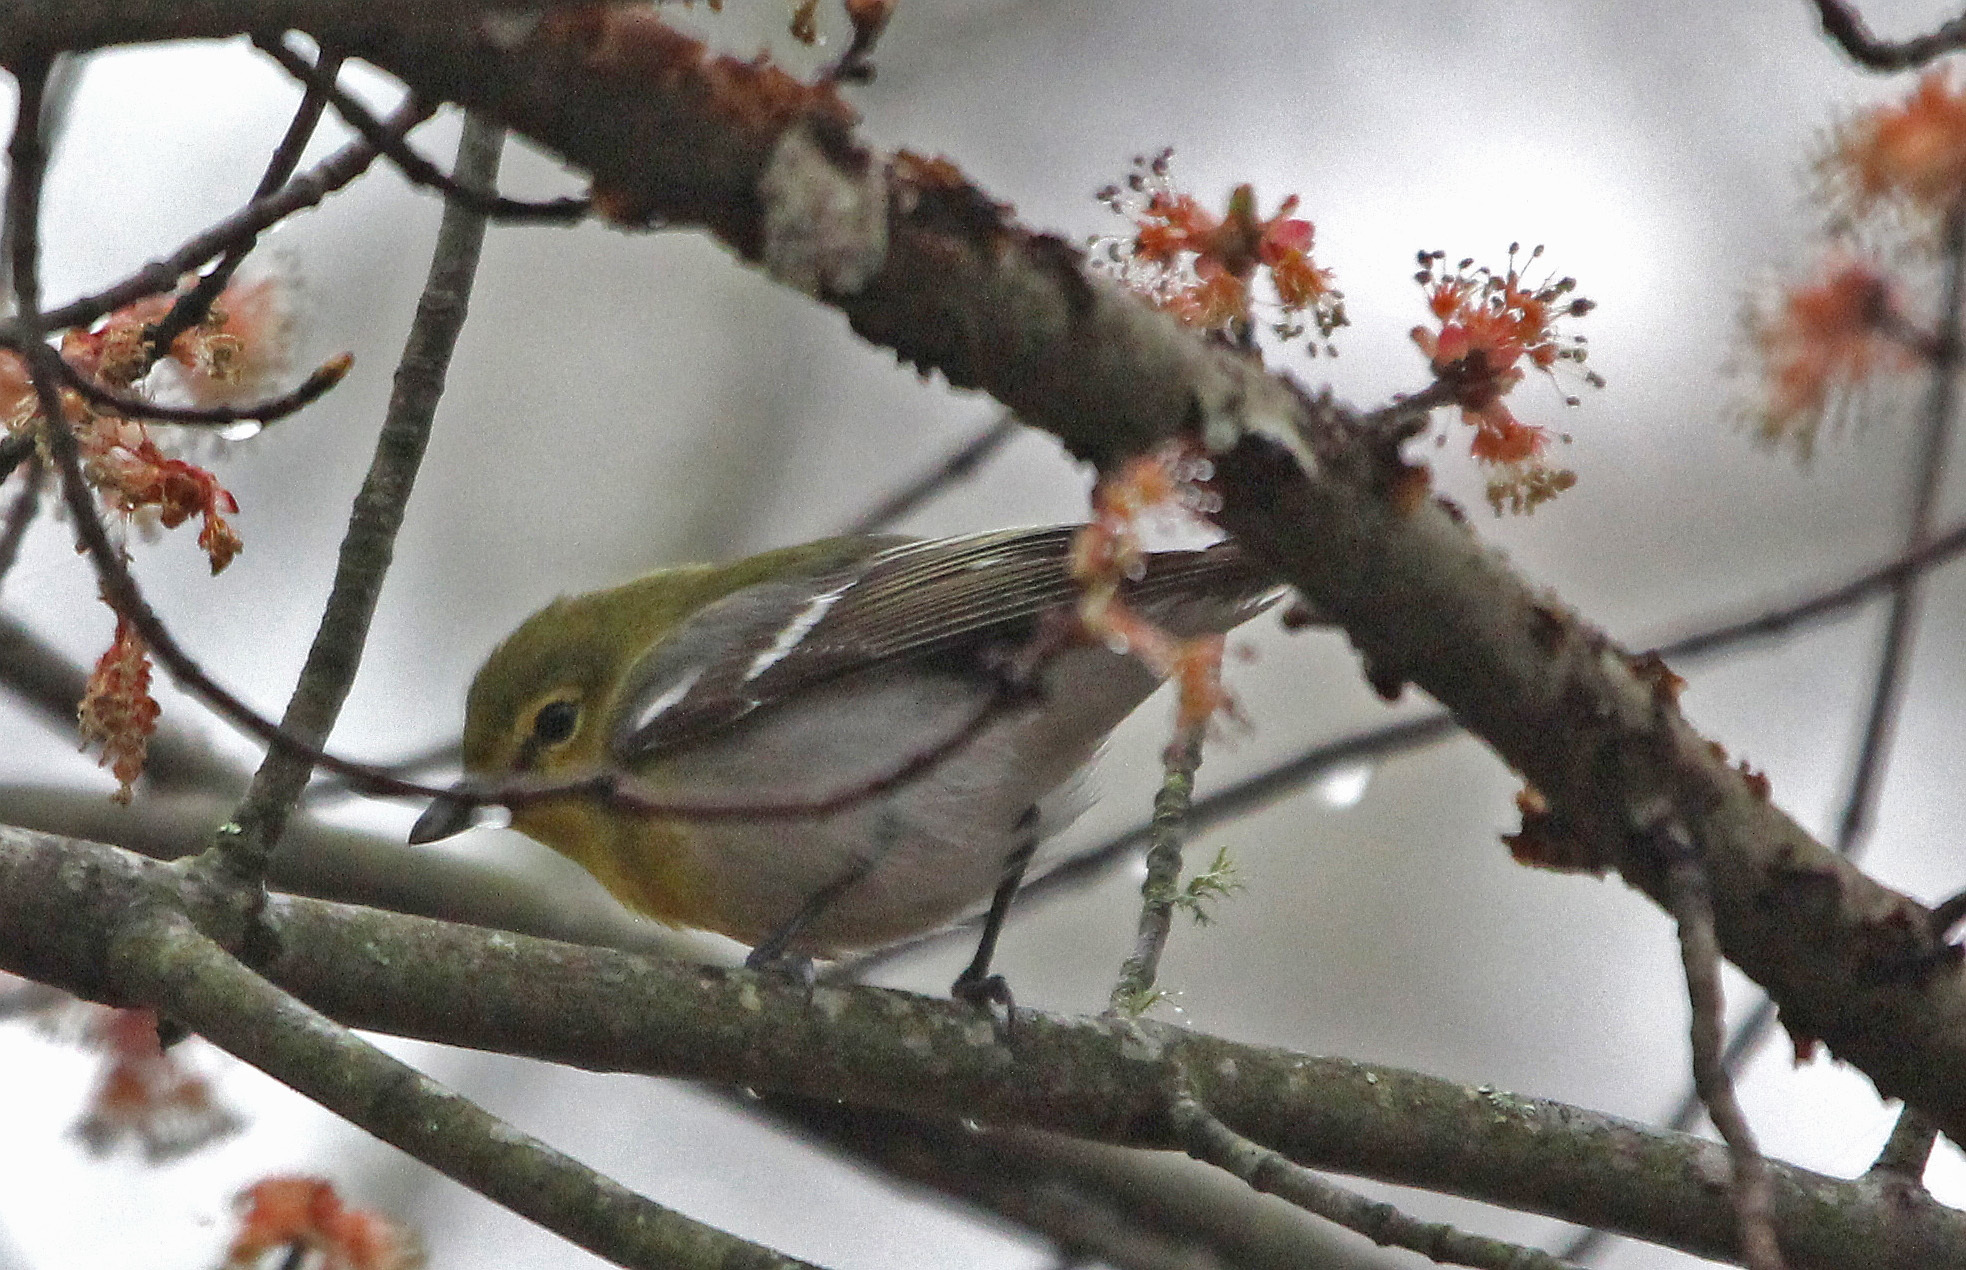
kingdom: Animalia
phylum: Chordata
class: Aves
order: Passeriformes
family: Vireonidae
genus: Vireo
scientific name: Vireo flavifrons
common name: Yellow-throated vireo
